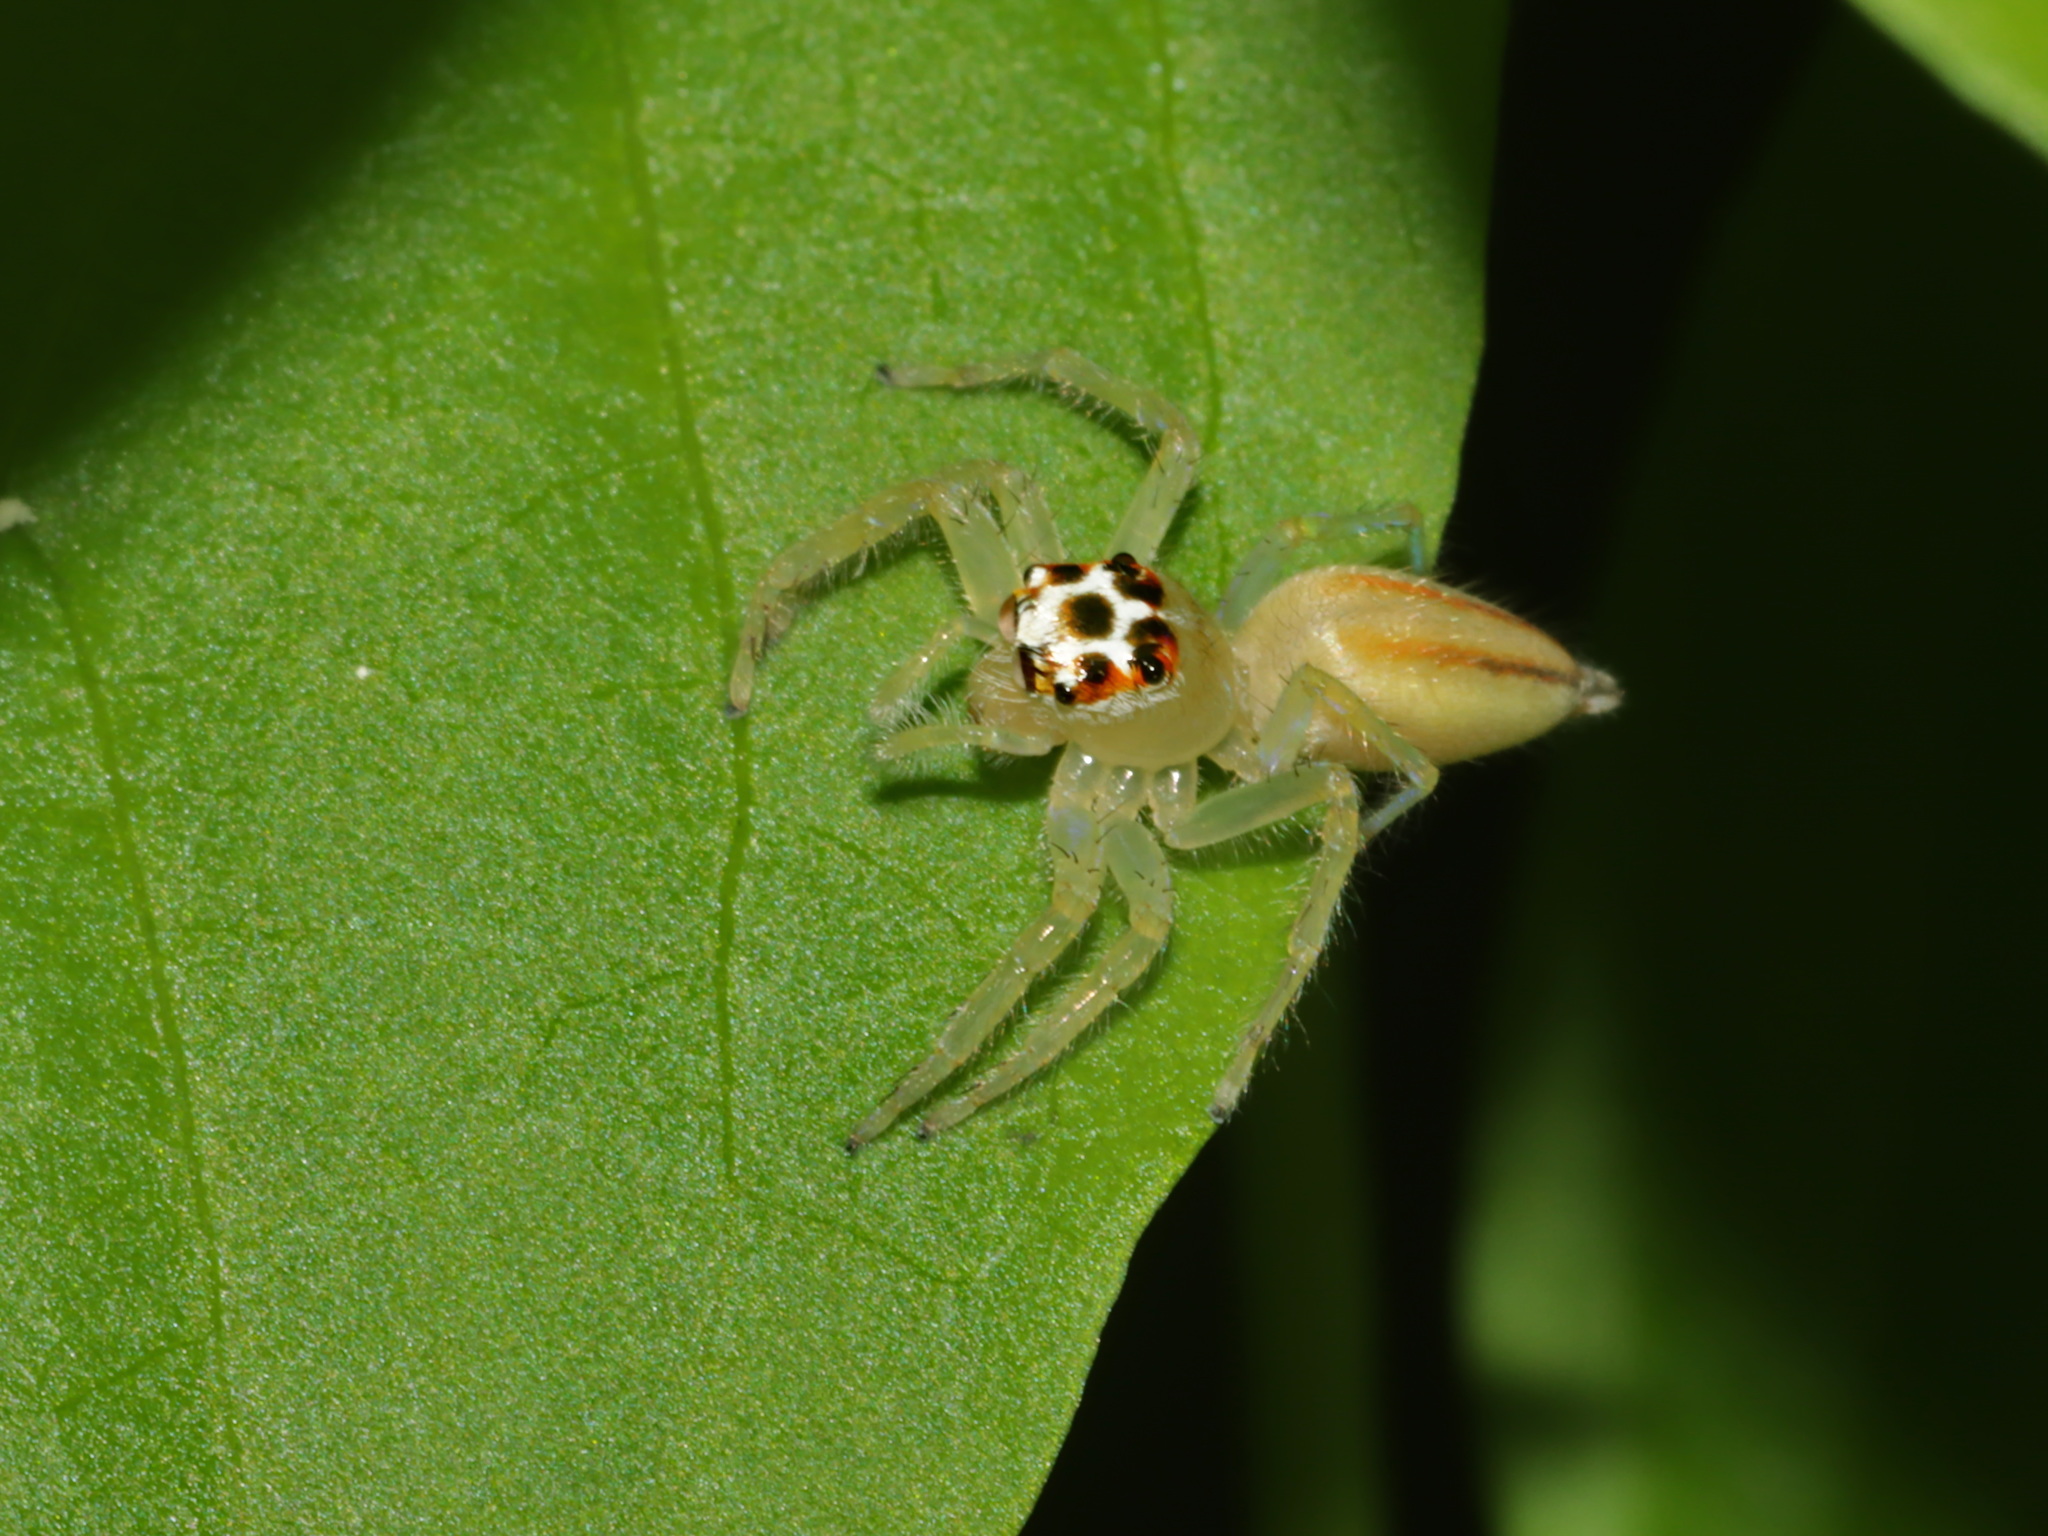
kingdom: Animalia
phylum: Arthropoda
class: Arachnida
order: Araneae
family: Salticidae
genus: Telamonia
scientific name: Telamonia dimidiata
